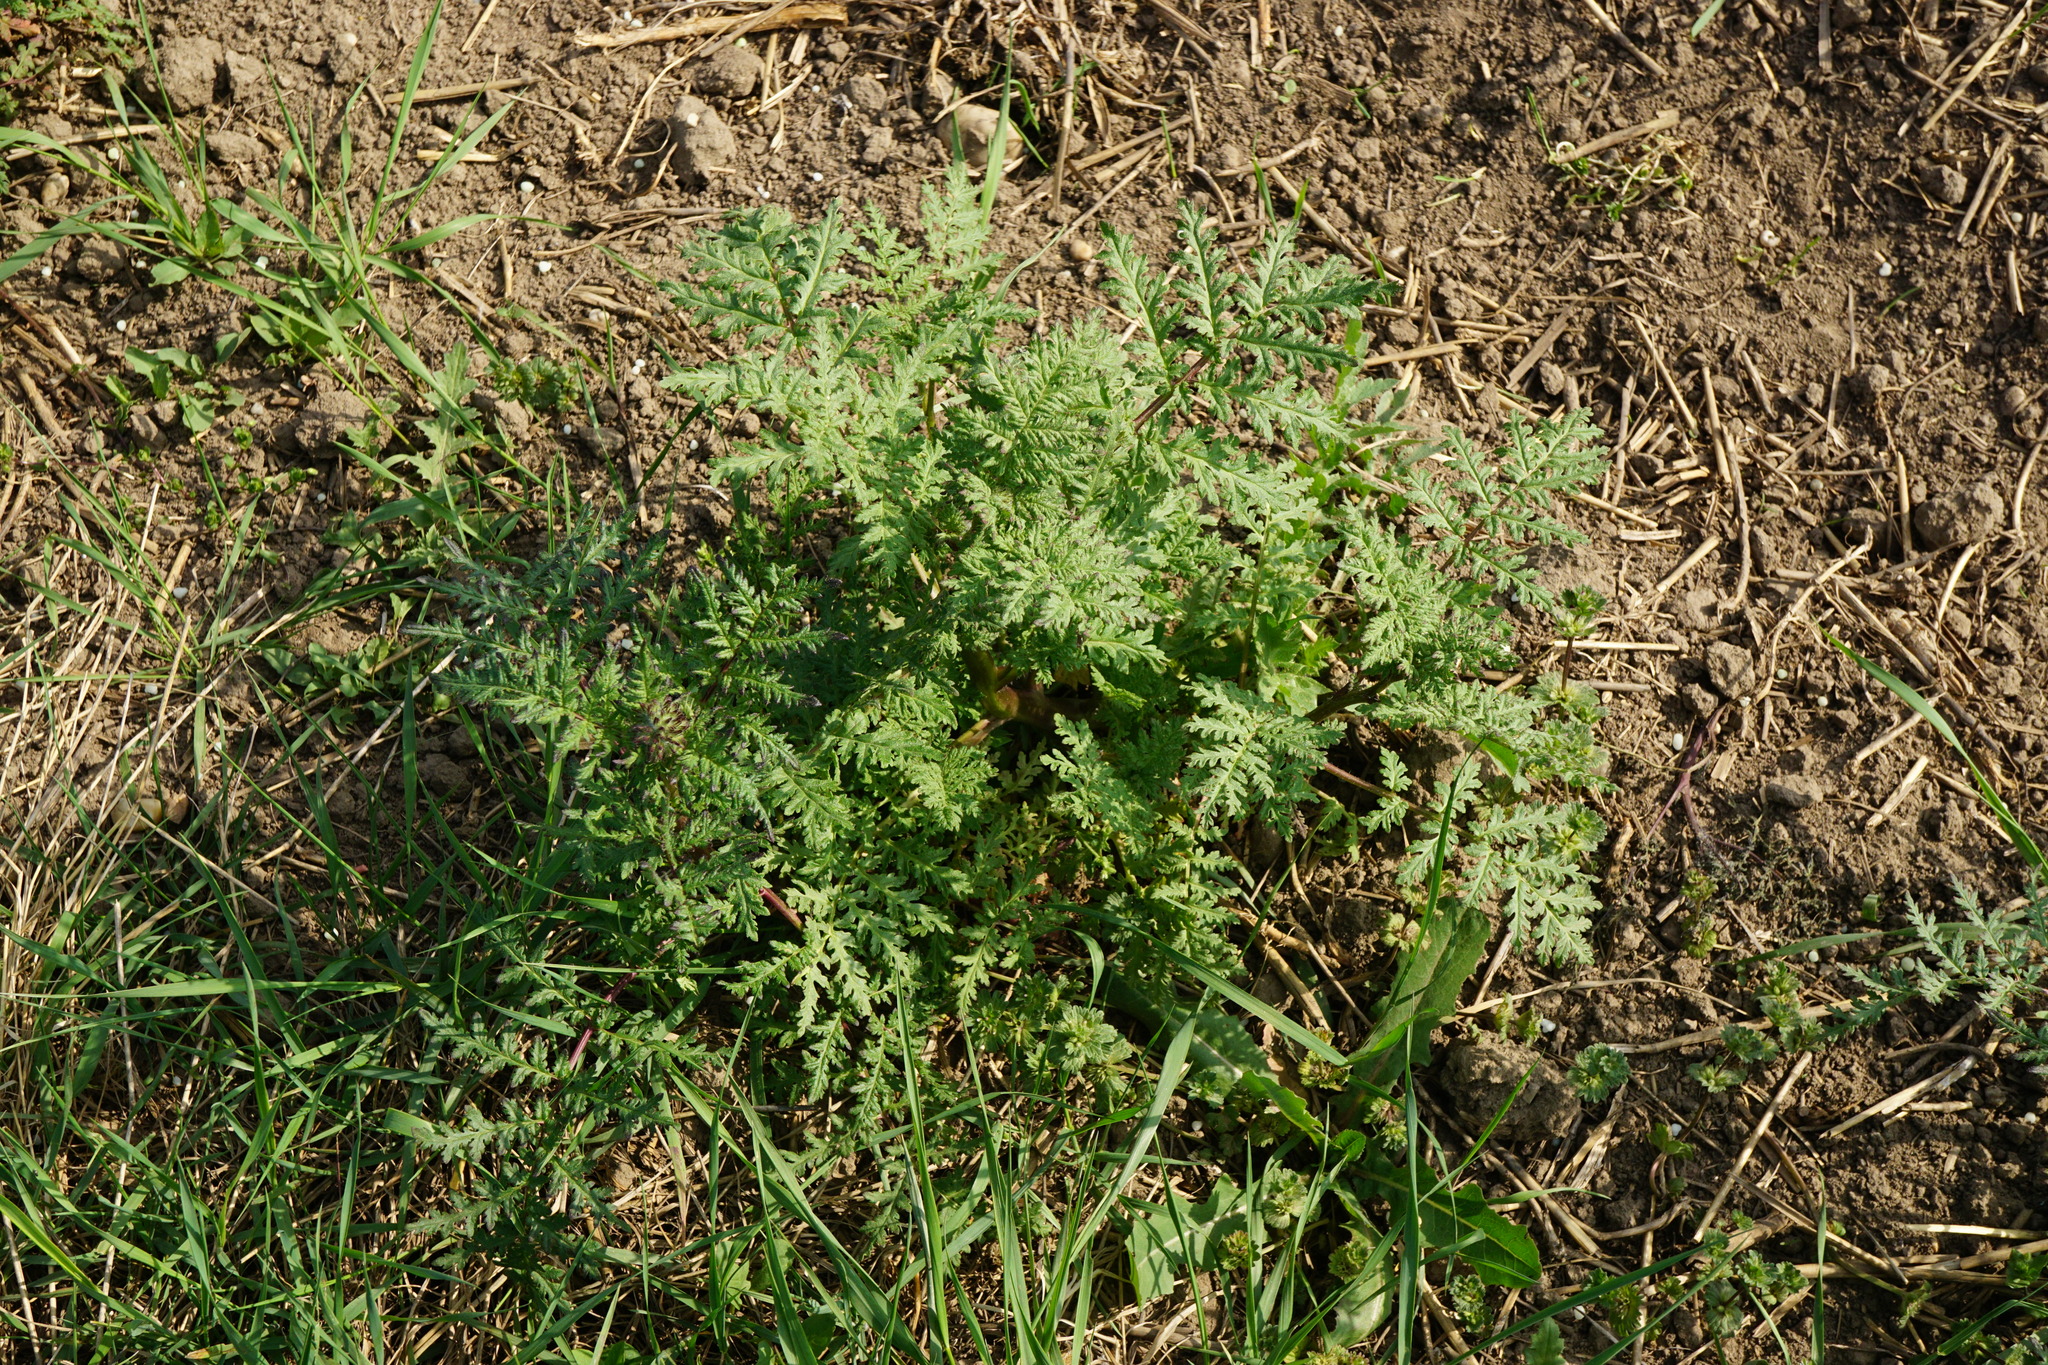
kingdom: Plantae
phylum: Tracheophyta
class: Magnoliopsida
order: Boraginales
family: Hydrophyllaceae
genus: Phacelia
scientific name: Phacelia tanacetifolia
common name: Phacelia
